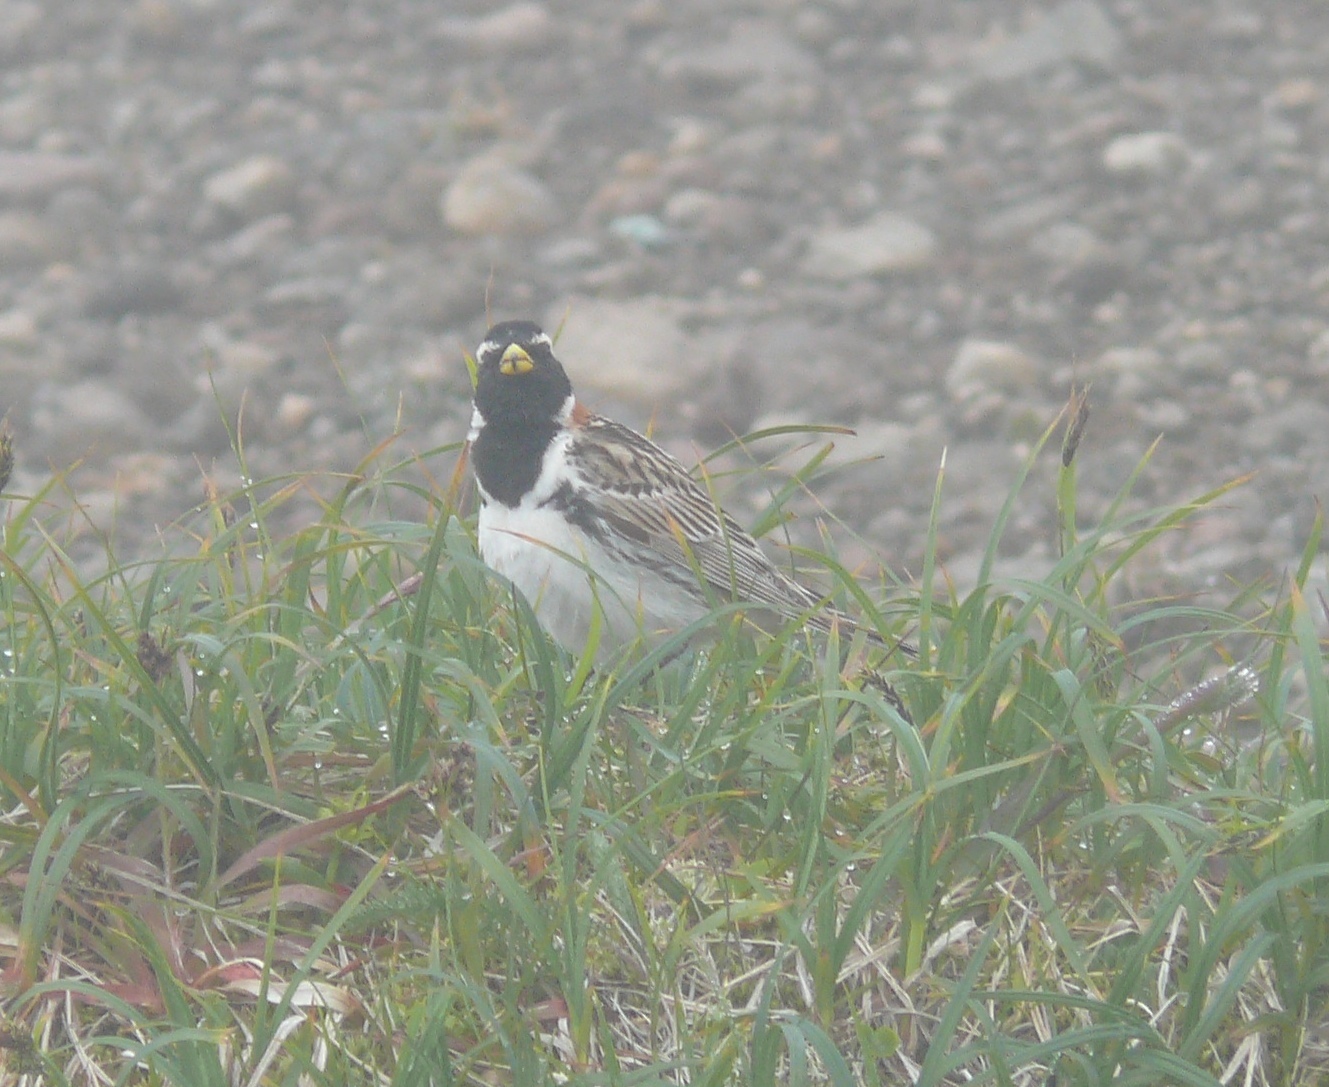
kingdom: Animalia
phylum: Chordata
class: Aves
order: Passeriformes
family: Calcariidae
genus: Calcarius
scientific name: Calcarius lapponicus
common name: Lapland longspur
